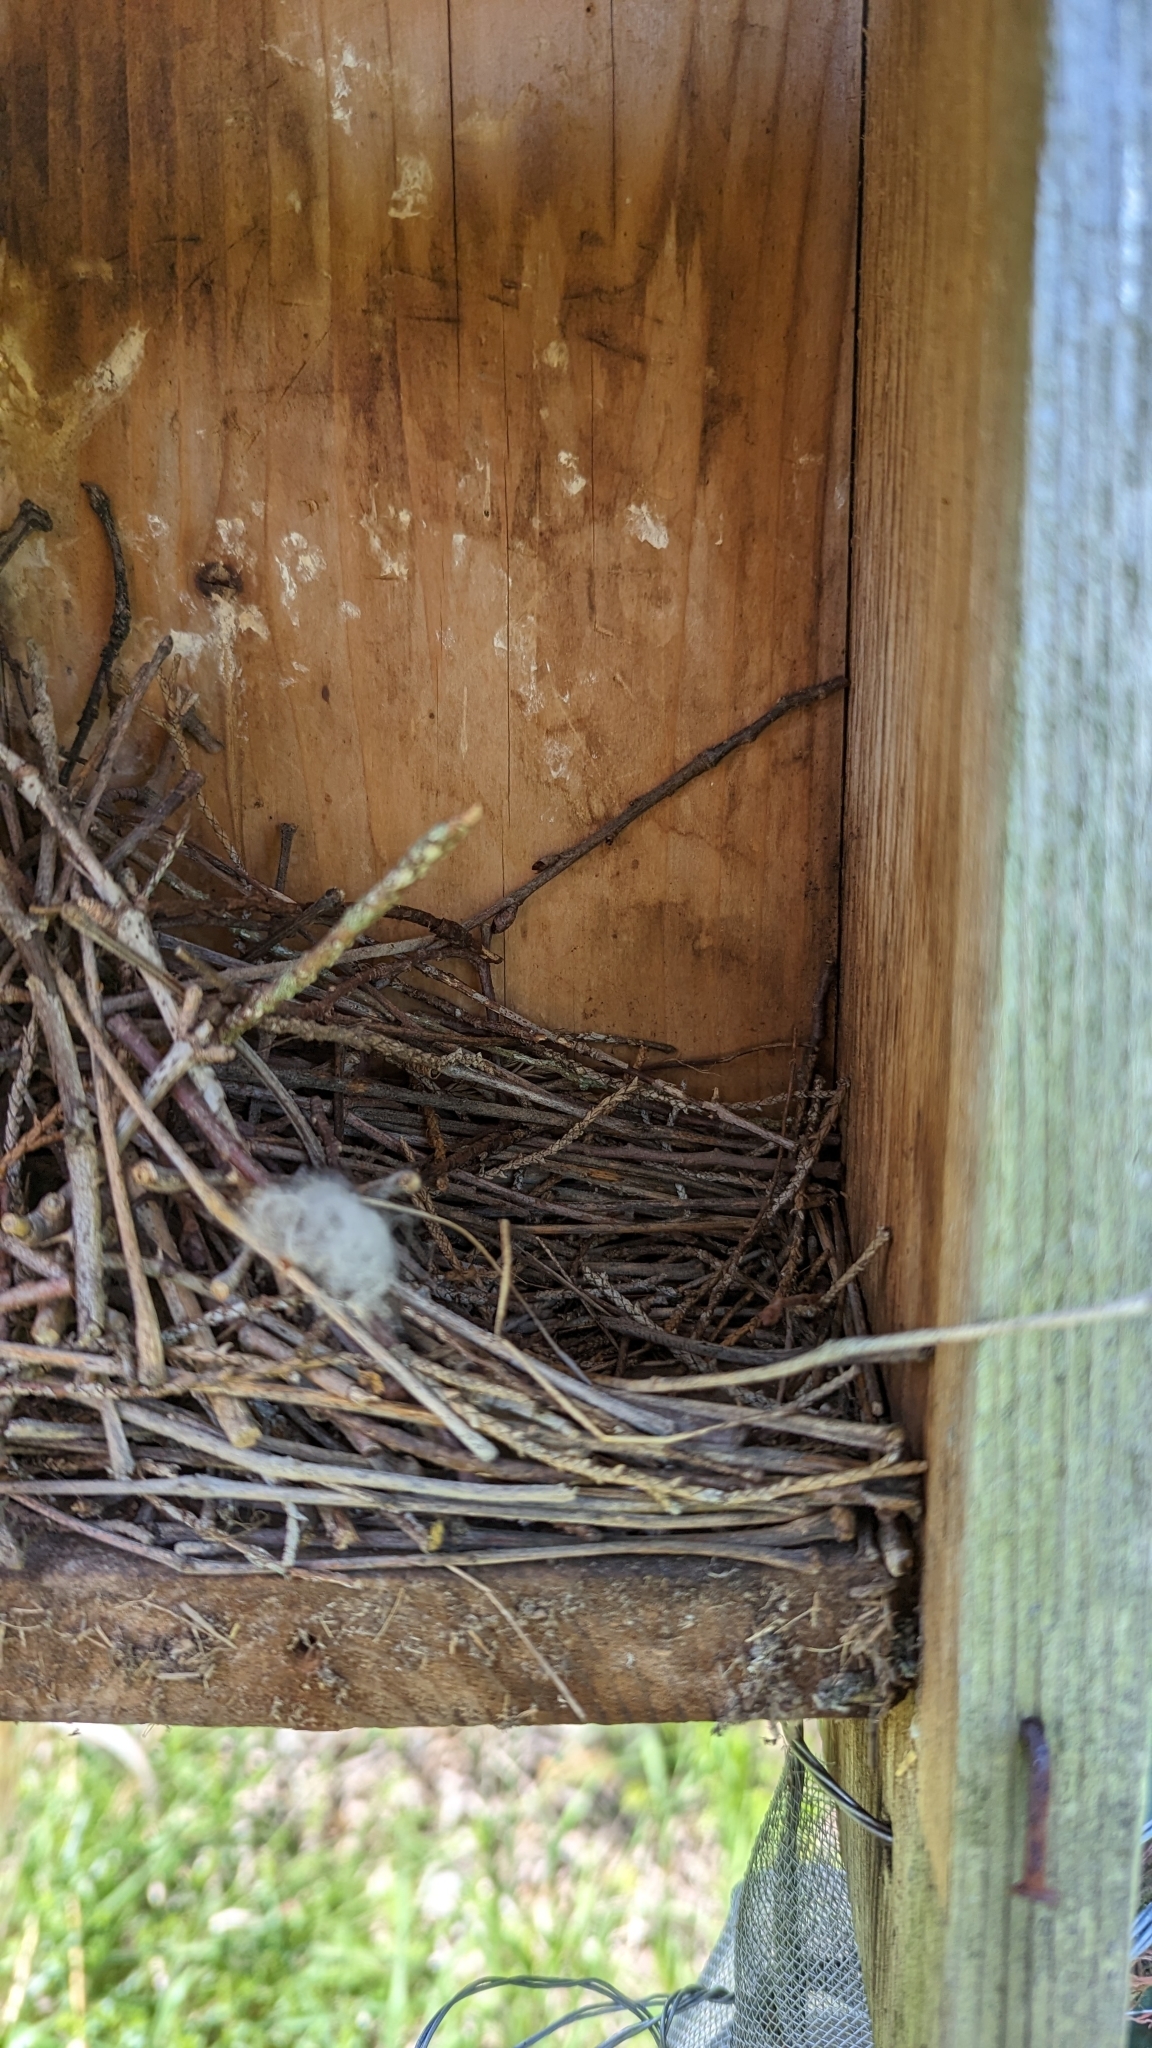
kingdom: Animalia
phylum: Chordata
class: Aves
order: Passeriformes
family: Troglodytidae
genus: Troglodytes
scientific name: Troglodytes aedon
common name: House wren
